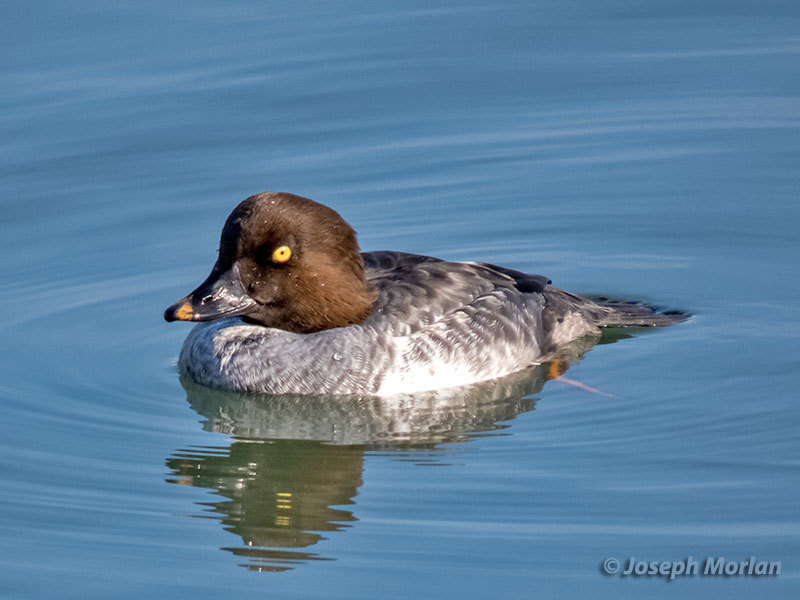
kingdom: Animalia
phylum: Chordata
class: Aves
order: Anseriformes
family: Anatidae
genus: Bucephala
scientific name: Bucephala clangula
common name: Common goldeneye
